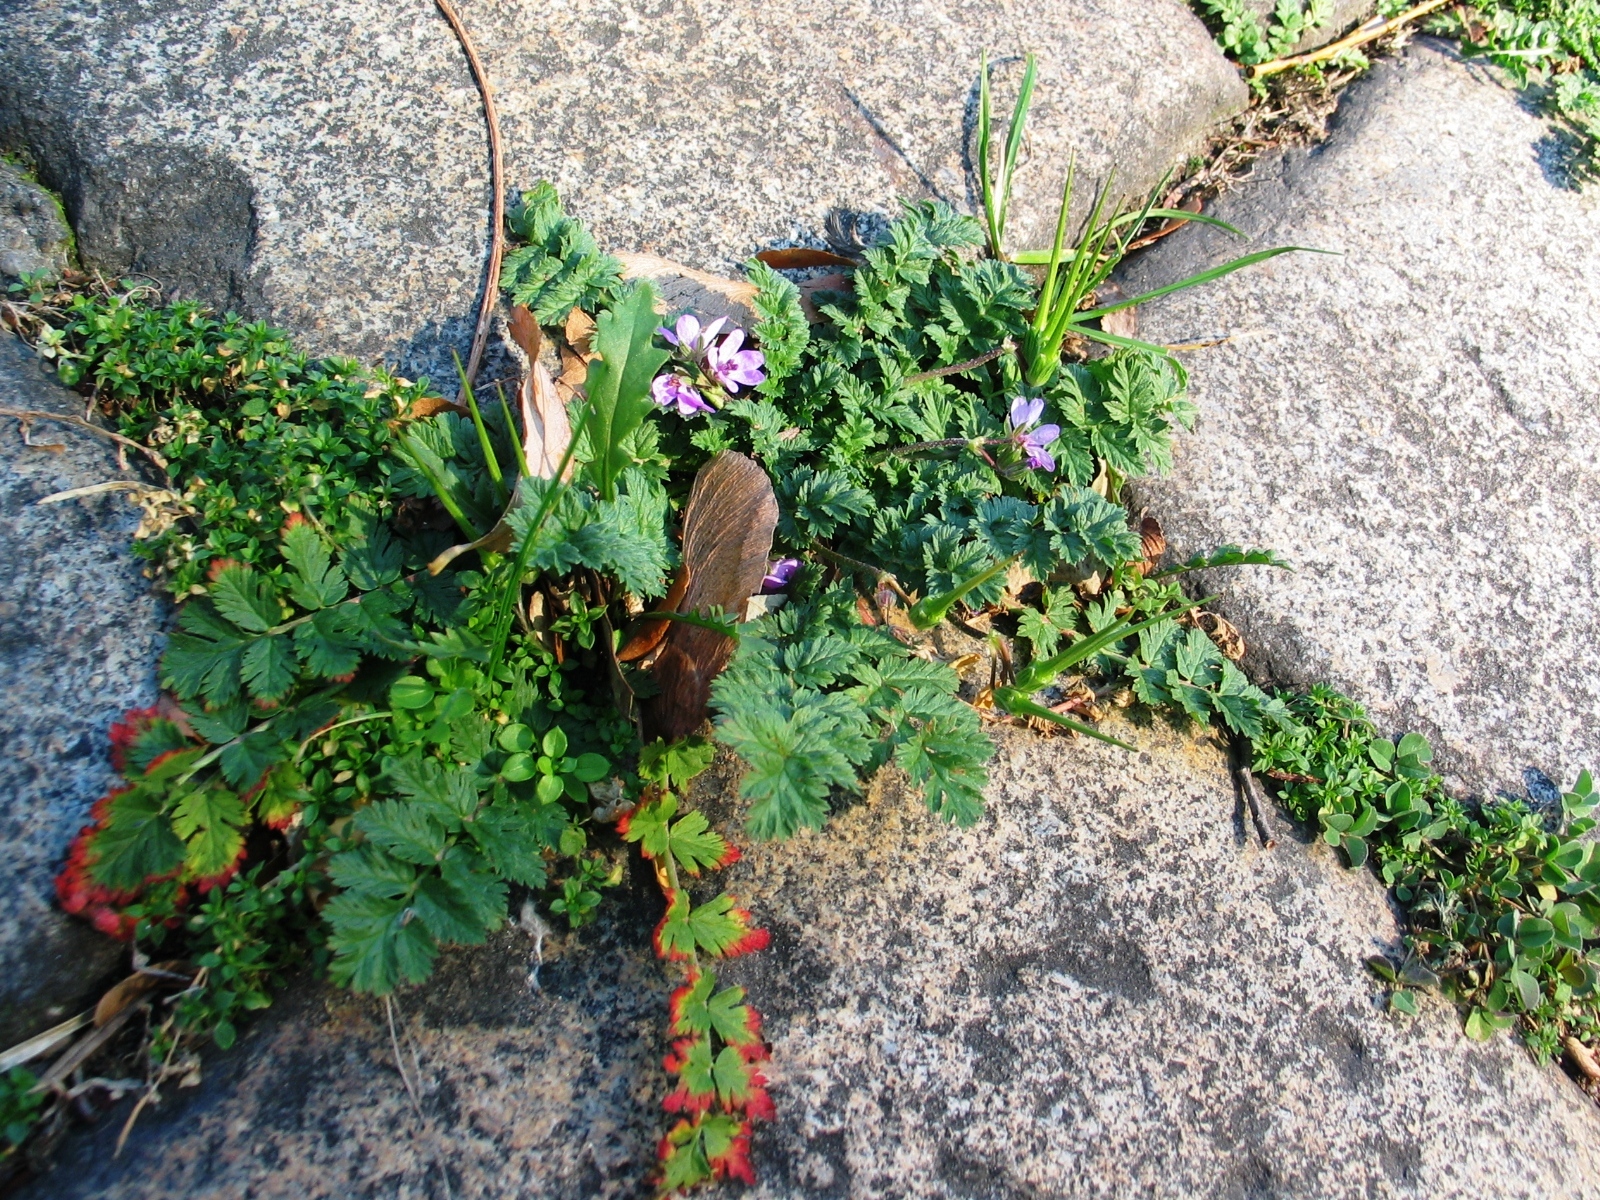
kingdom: Plantae
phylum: Tracheophyta
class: Magnoliopsida
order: Geraniales
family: Geraniaceae
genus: Erodium
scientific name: Erodium cicutarium
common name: Common stork's-bill
